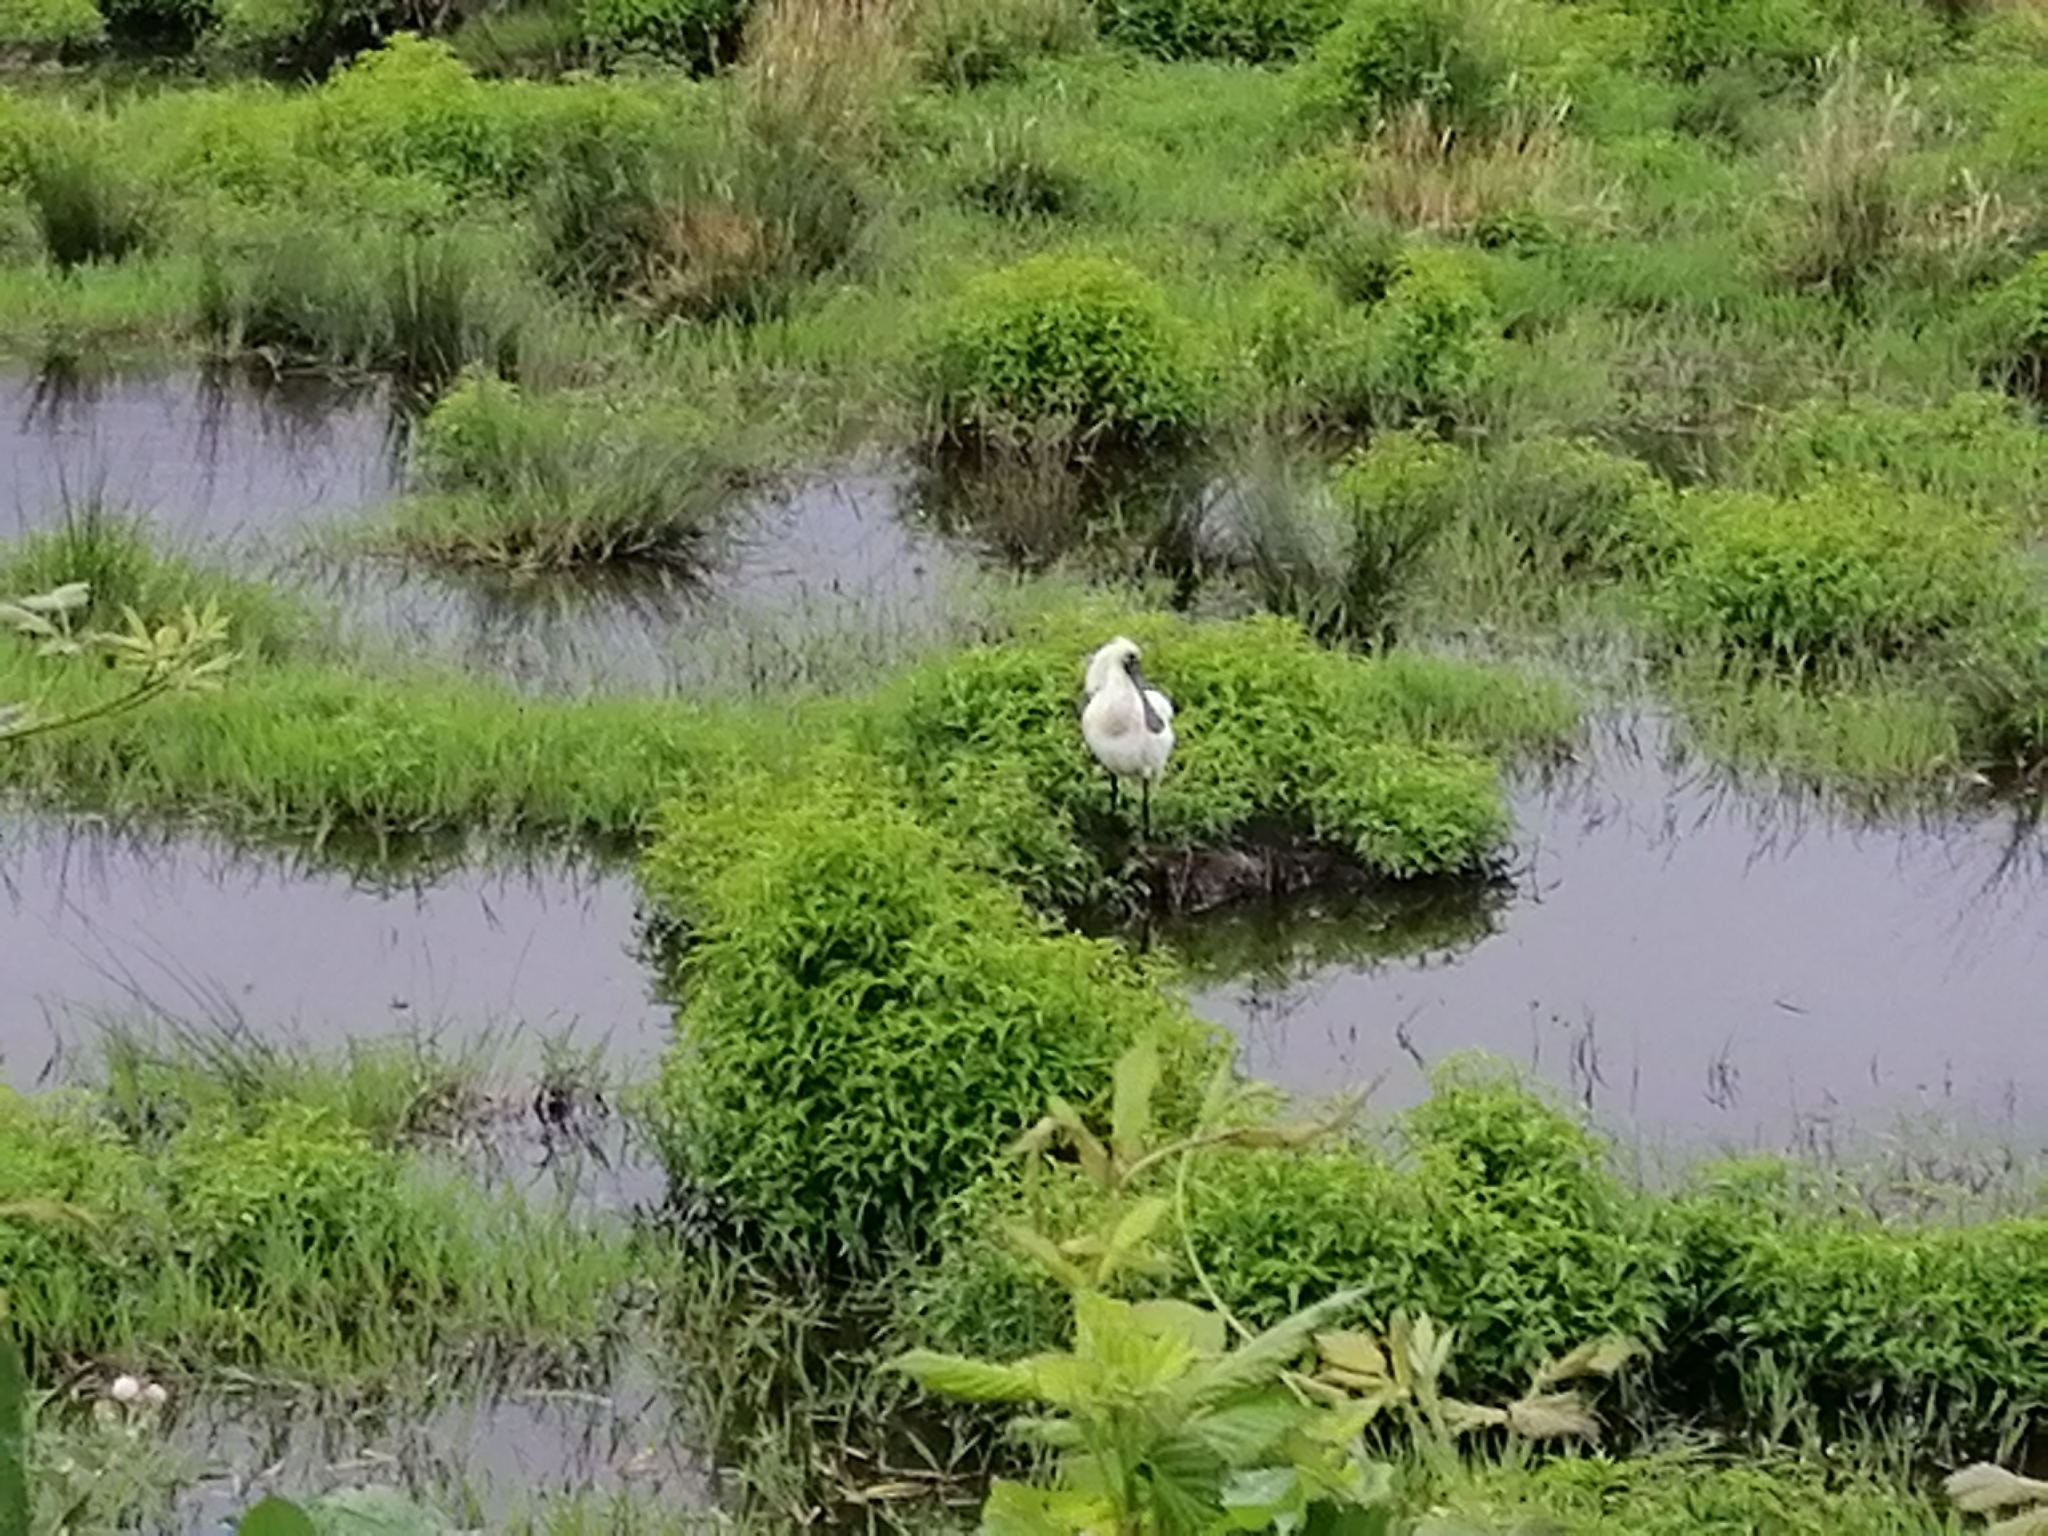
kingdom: Animalia
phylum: Chordata
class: Aves
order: Pelecaniformes
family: Threskiornithidae
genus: Platalea
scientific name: Platalea regia
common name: Royal spoonbill
